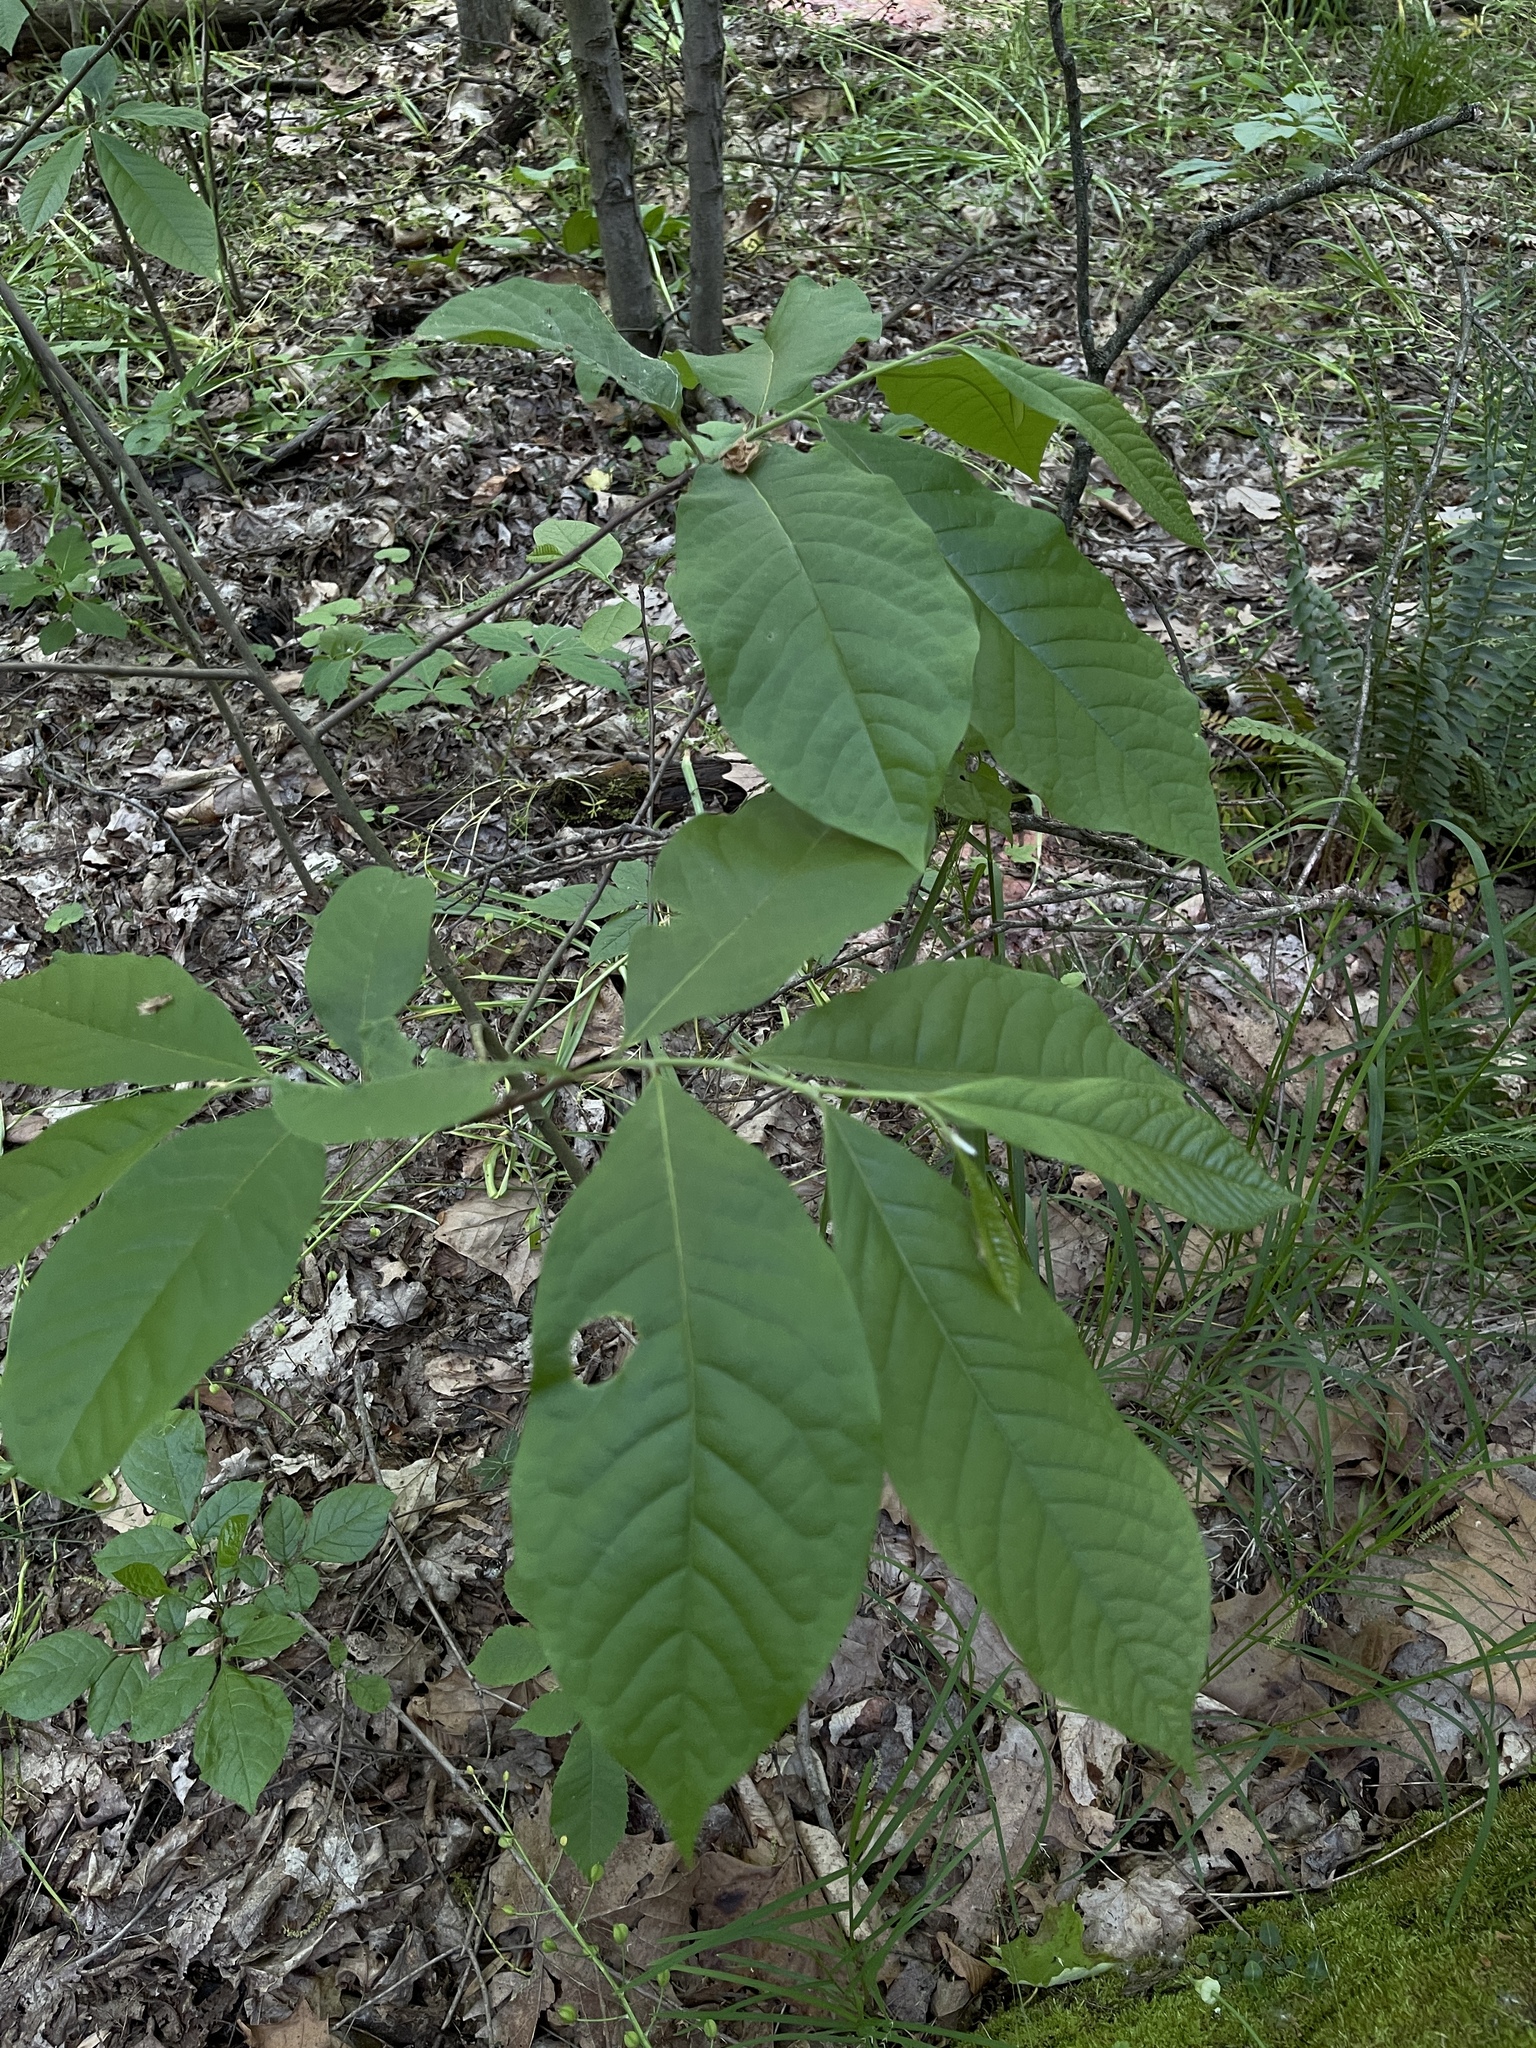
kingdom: Plantae
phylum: Tracheophyta
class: Magnoliopsida
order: Magnoliales
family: Annonaceae
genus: Asimina
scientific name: Asimina triloba
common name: Dog-banana
